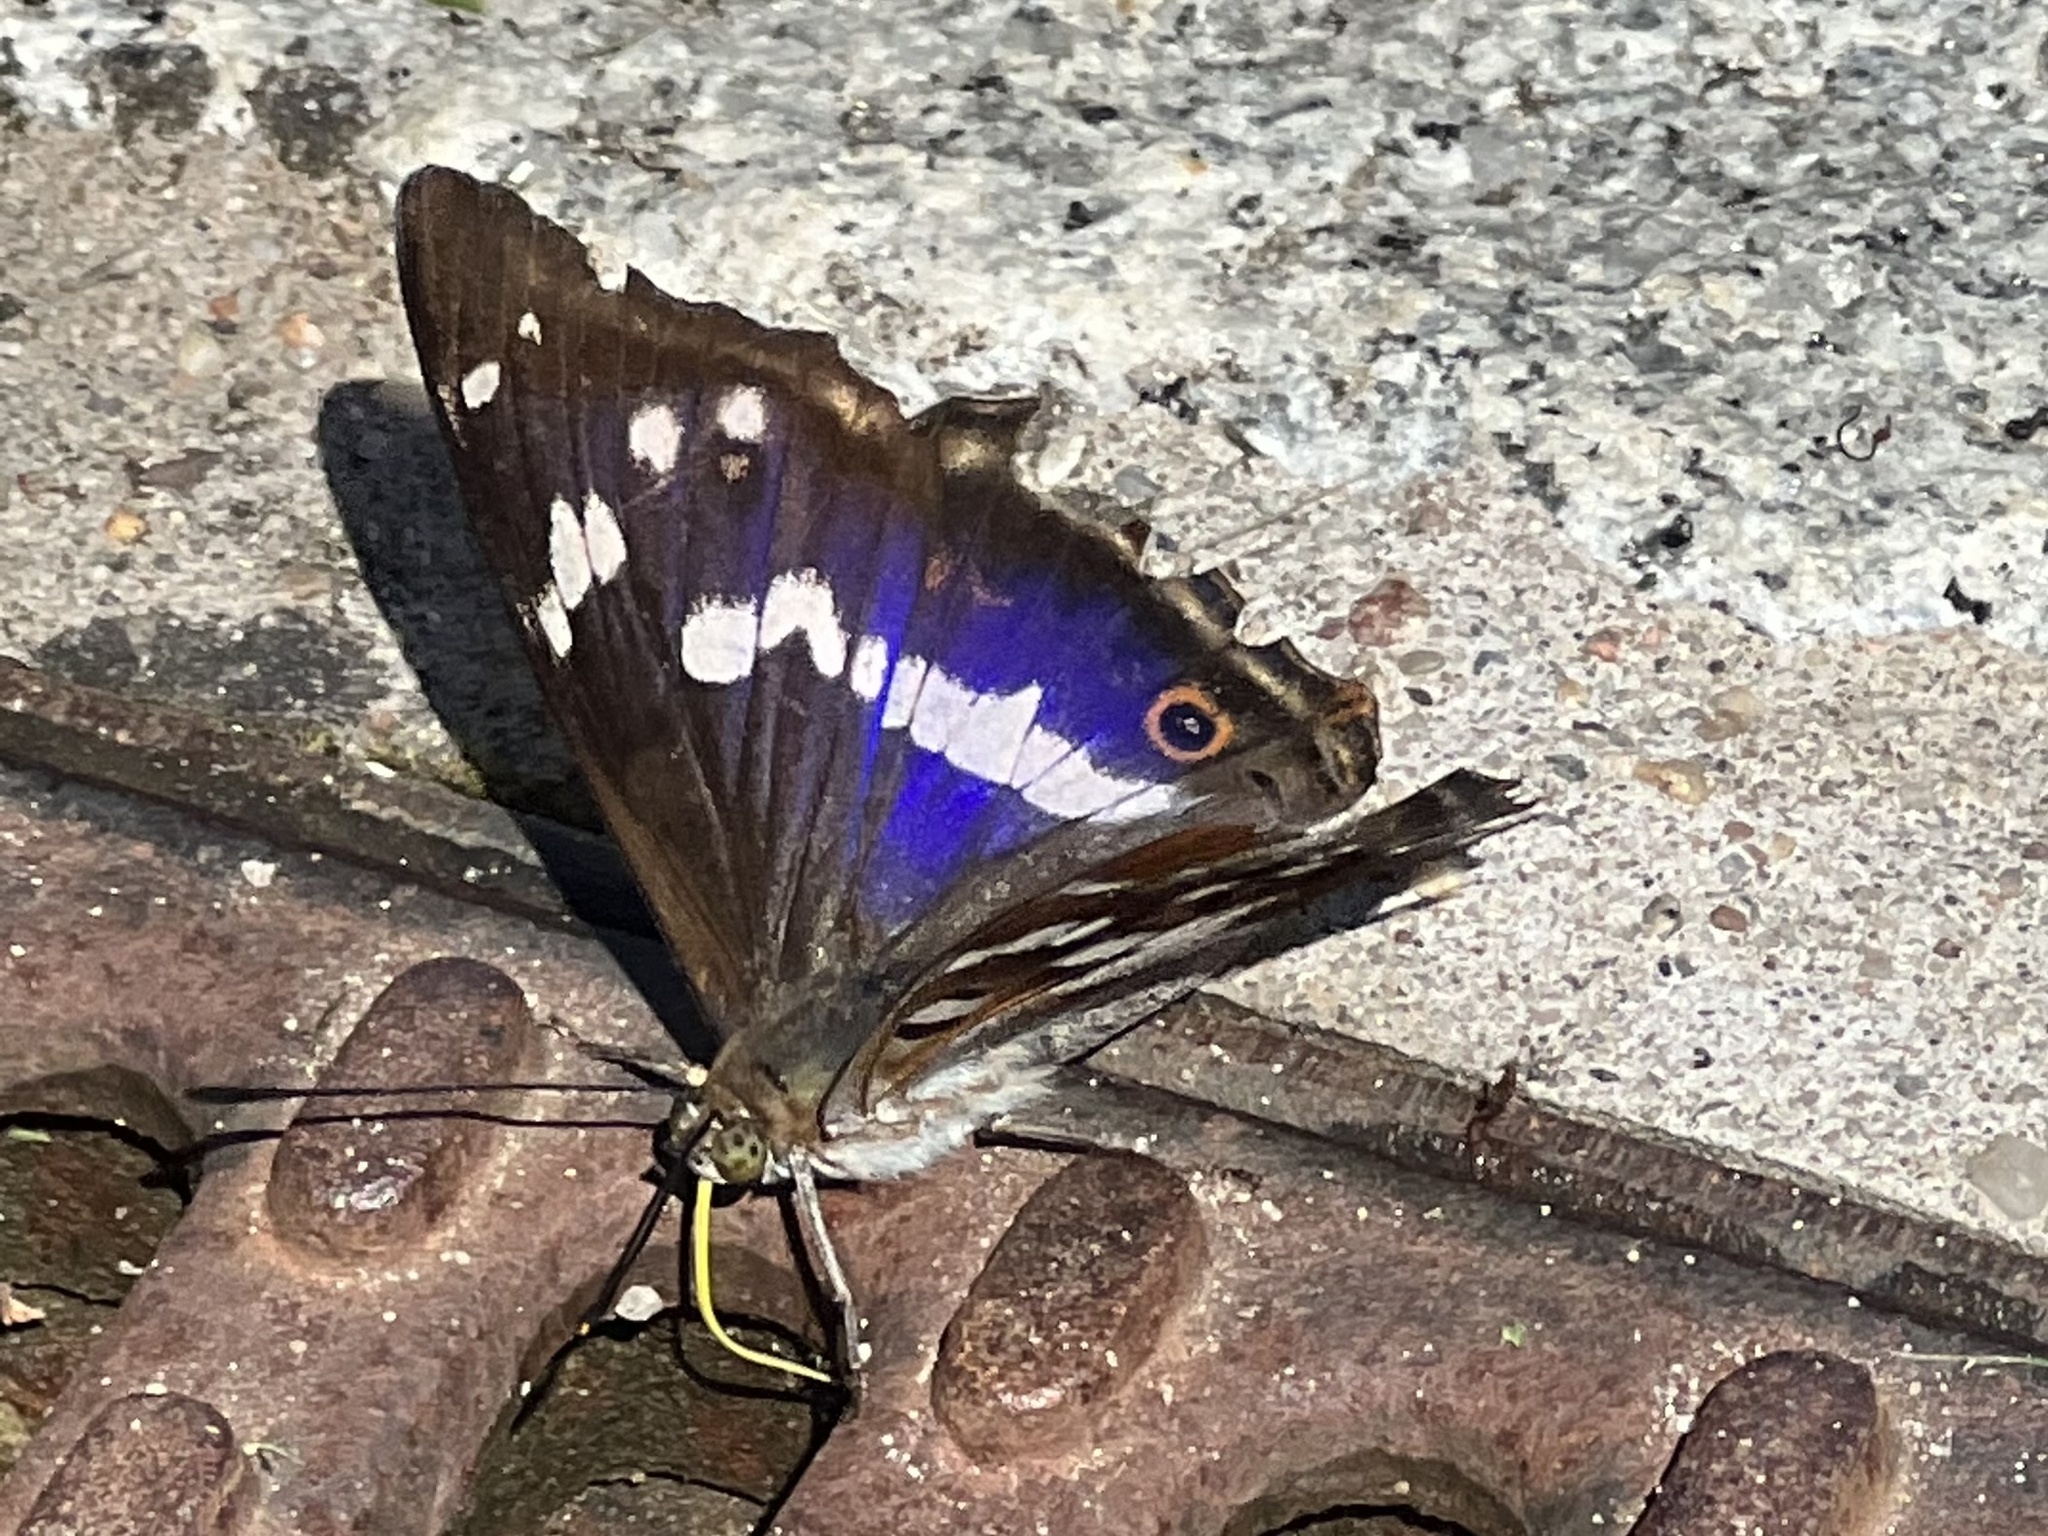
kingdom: Animalia
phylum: Arthropoda
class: Insecta
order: Lepidoptera
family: Nymphalidae
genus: Apatura
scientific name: Apatura iris
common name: Purple emperor
